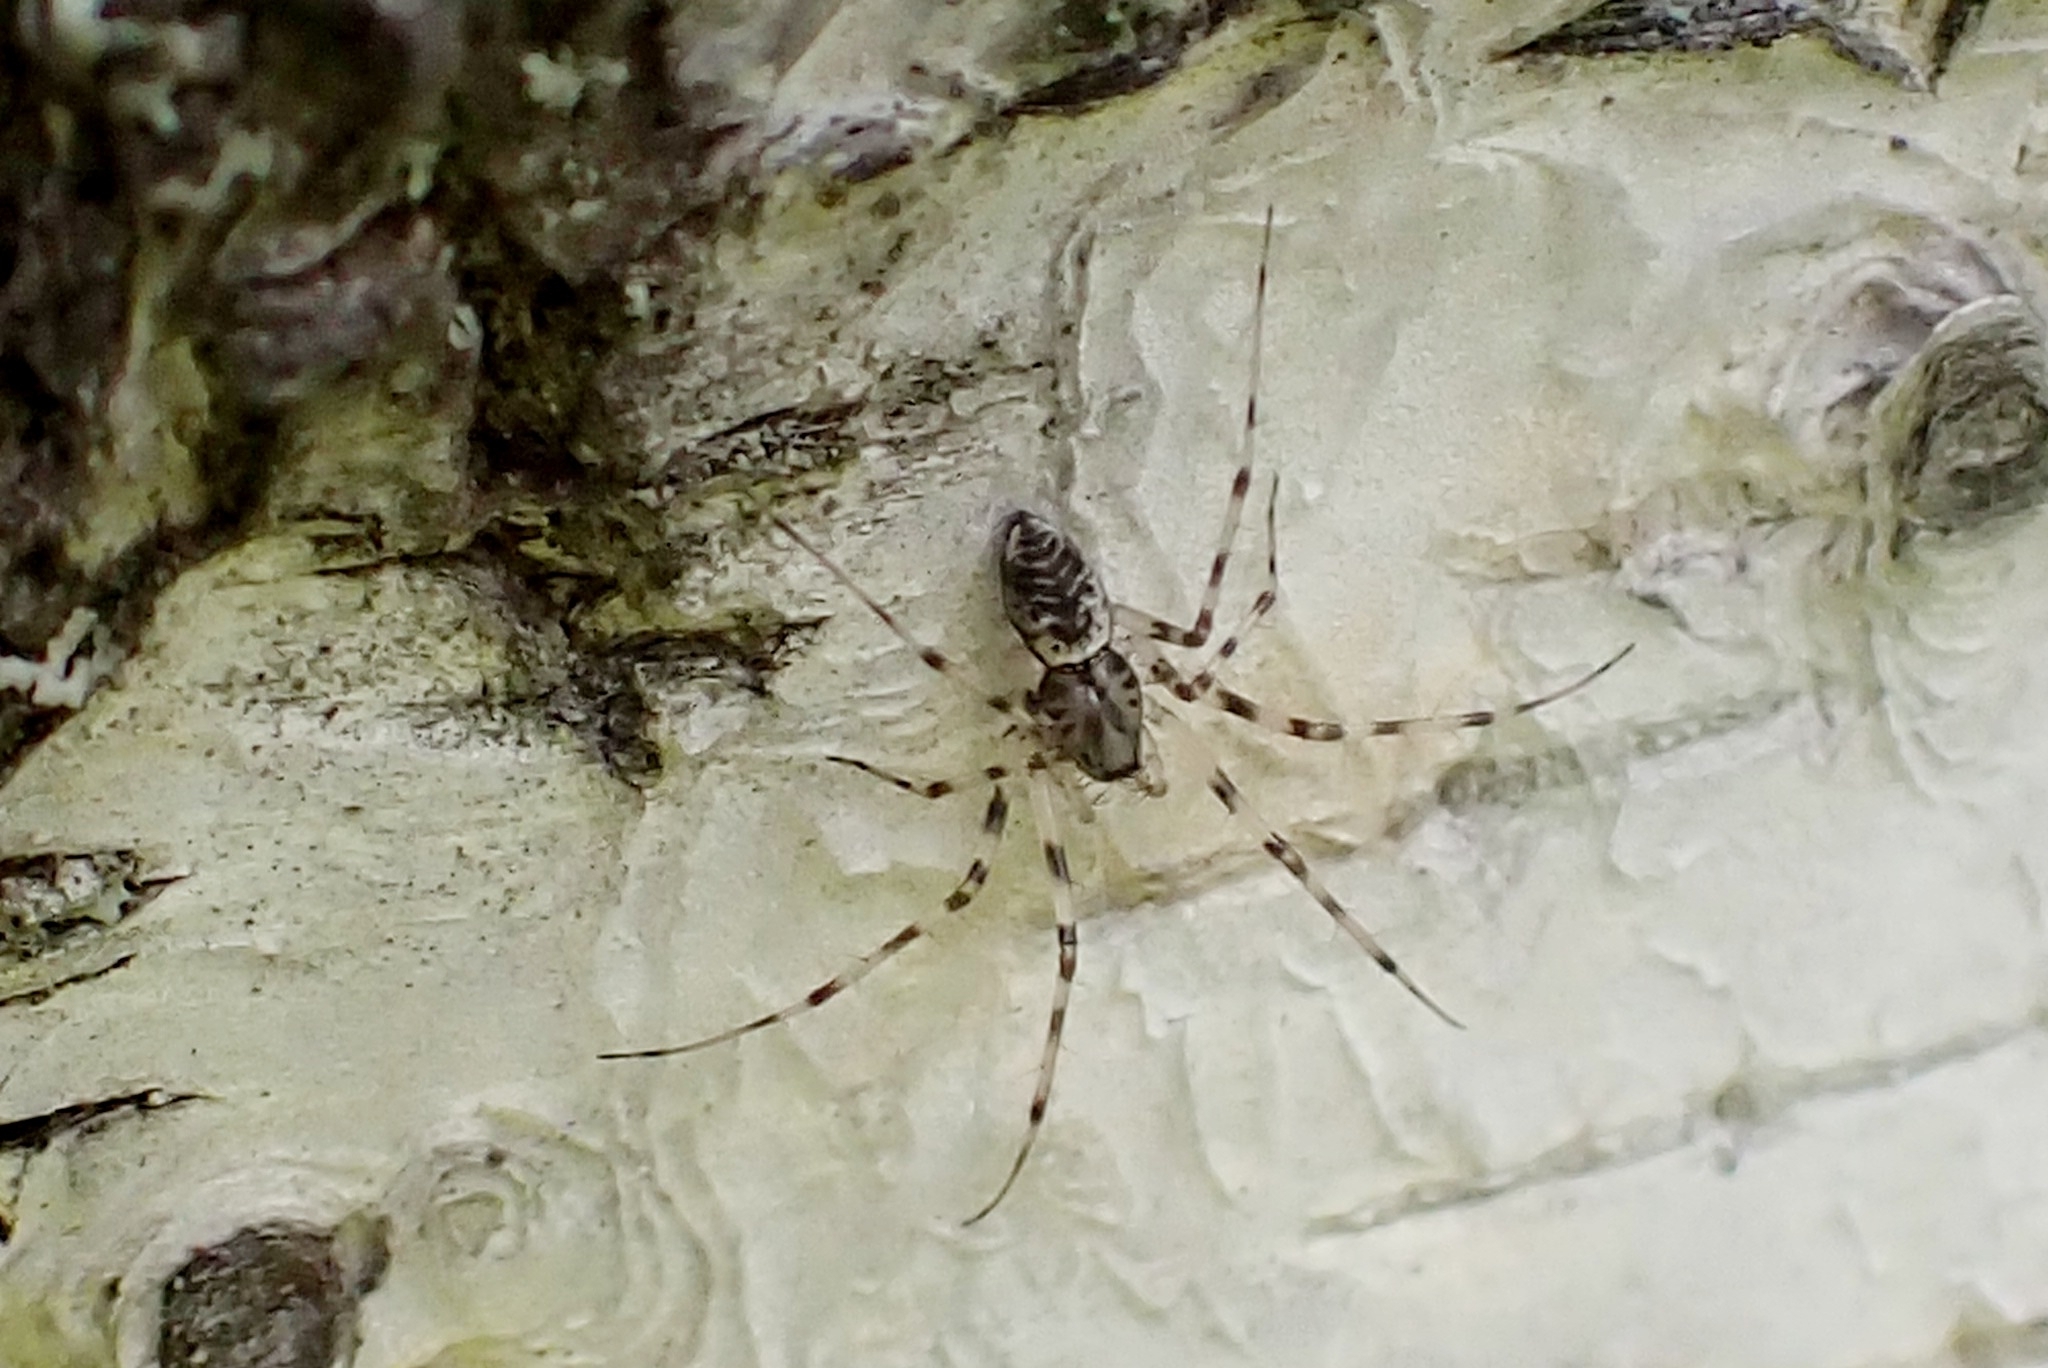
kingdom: Animalia
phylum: Arthropoda
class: Arachnida
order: Araneae
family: Linyphiidae
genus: Drapetisca
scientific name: Drapetisca socialis
